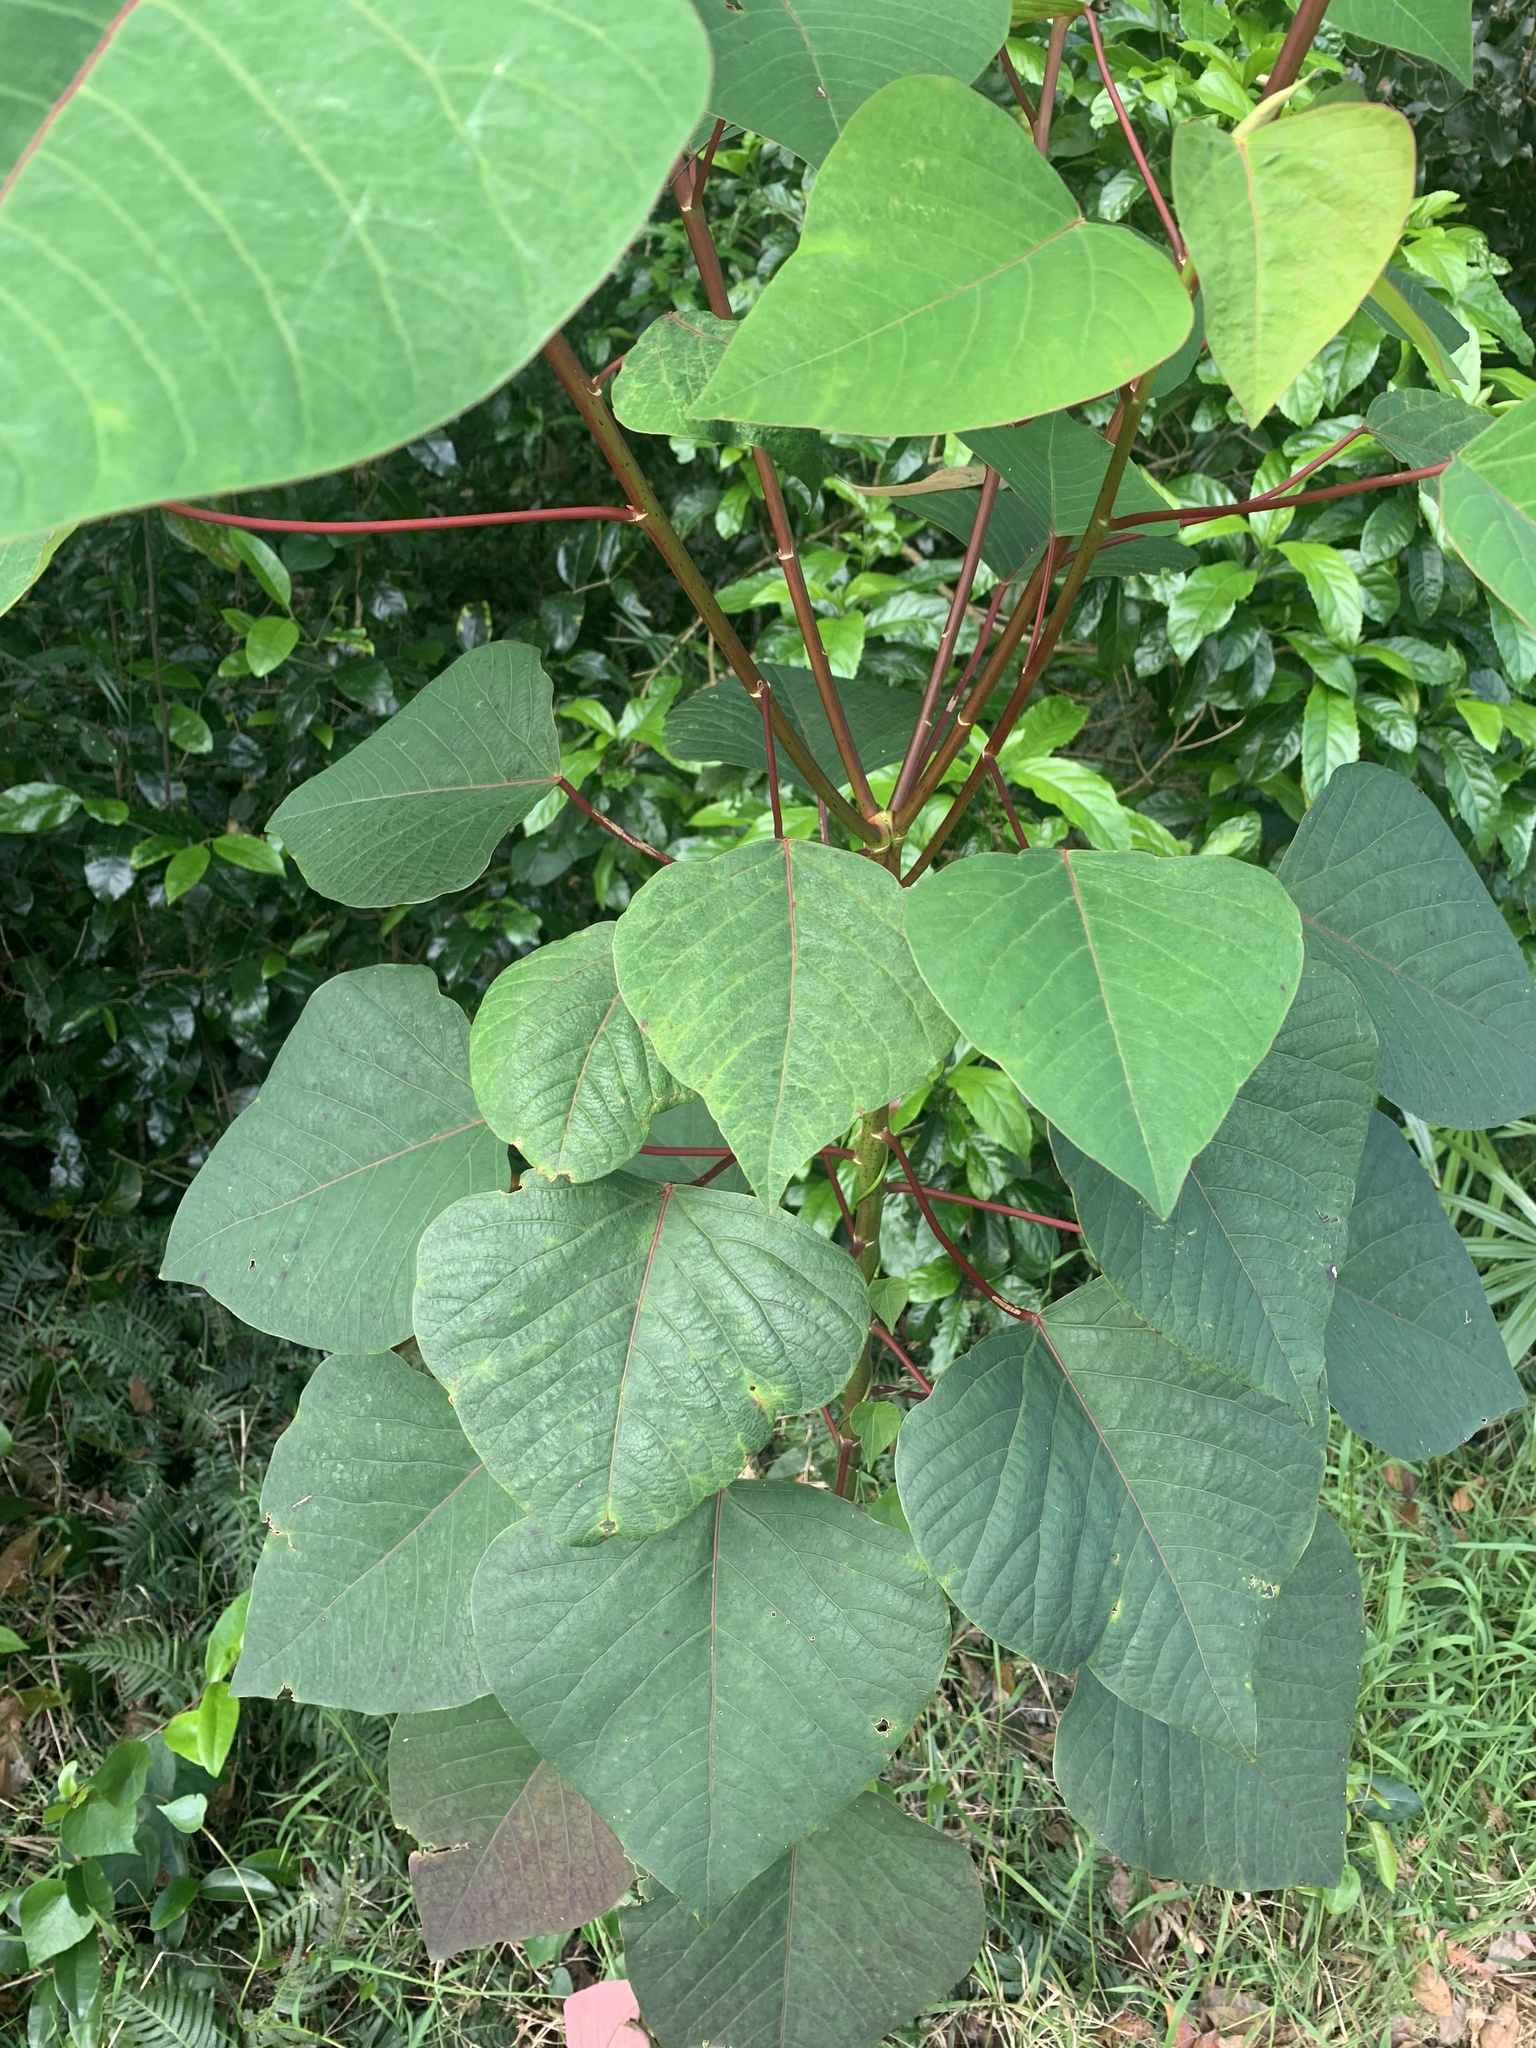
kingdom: Plantae
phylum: Tracheophyta
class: Magnoliopsida
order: Malpighiales
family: Euphorbiaceae
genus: Homalanthus
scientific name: Homalanthus populifolius
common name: Queensland poplar
